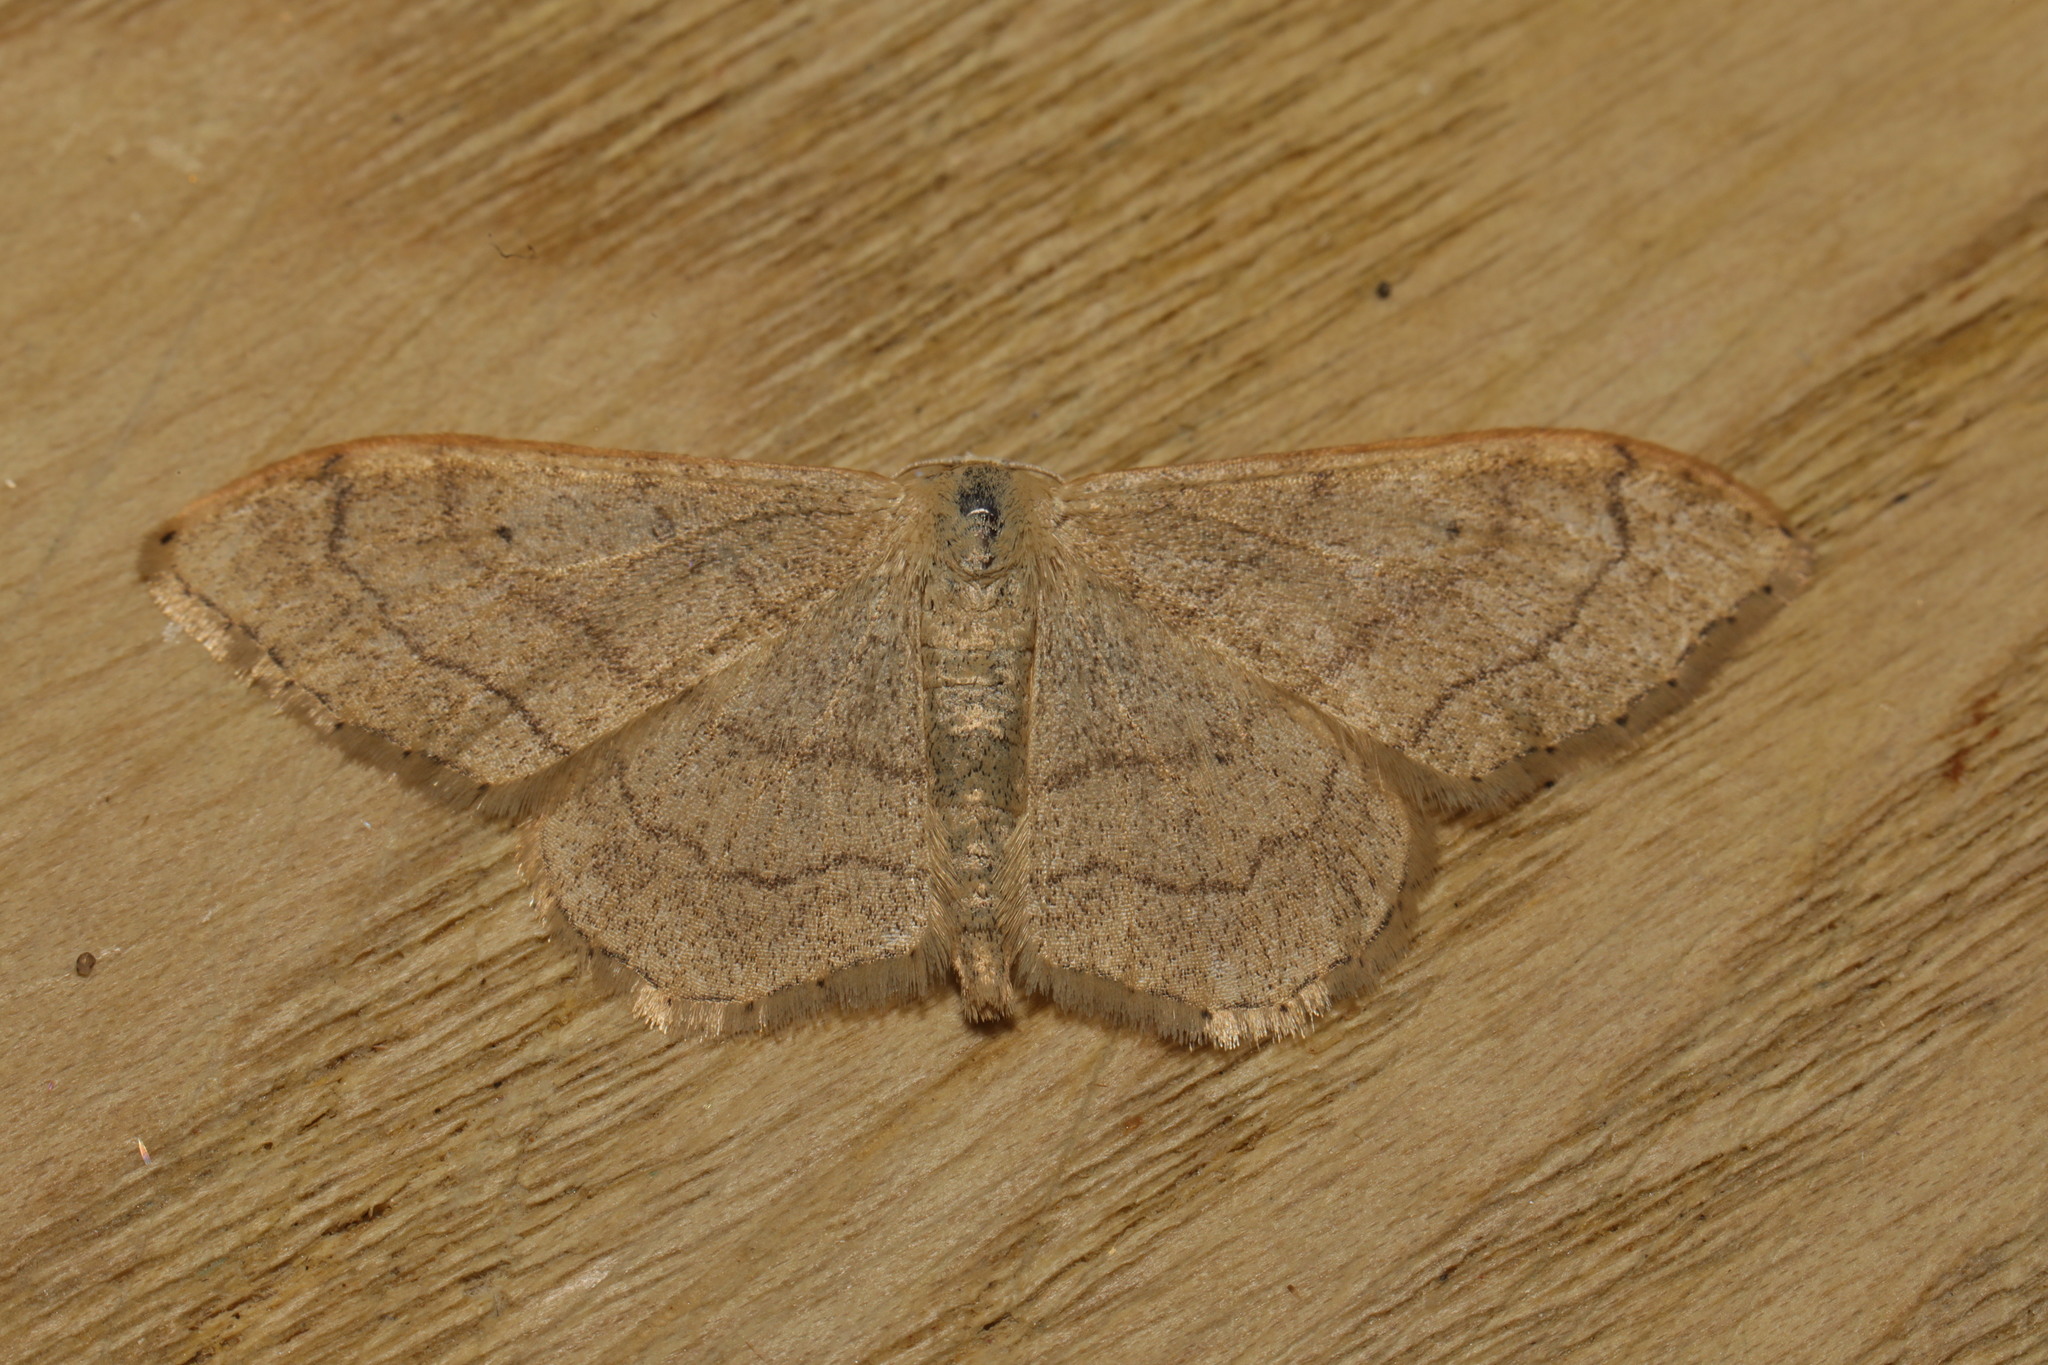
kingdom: Animalia
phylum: Arthropoda
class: Insecta
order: Lepidoptera
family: Geometridae
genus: Idaea
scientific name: Idaea aversata
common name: Riband wave
